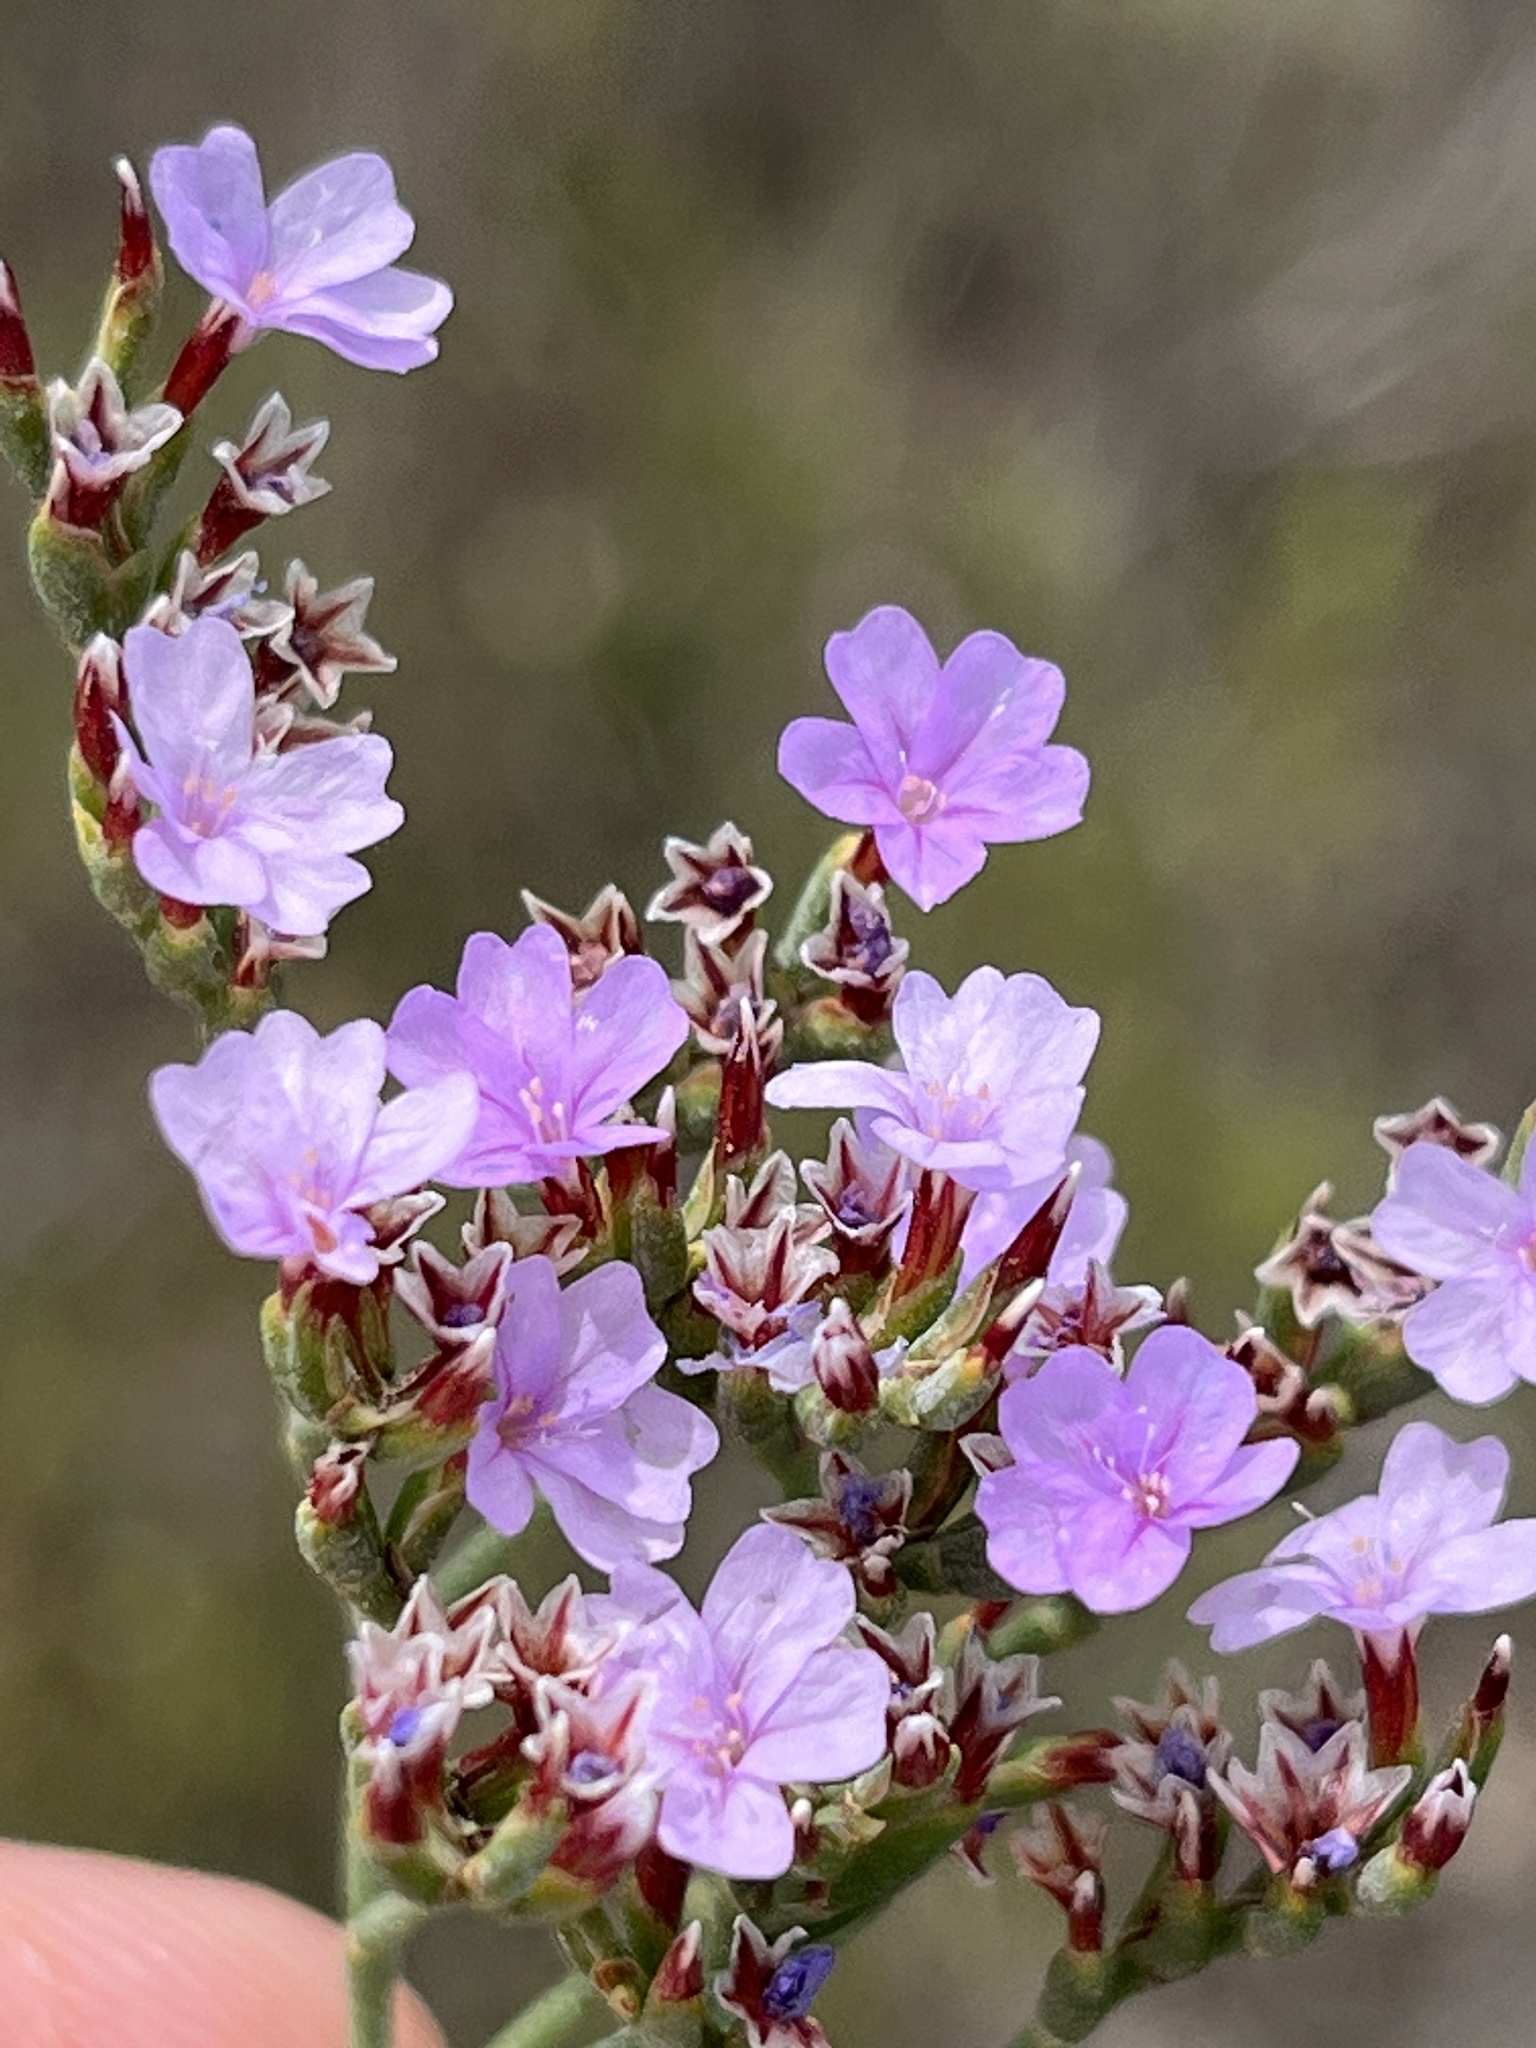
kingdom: Plantae
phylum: Tracheophyta
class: Magnoliopsida
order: Caryophyllales
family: Plumbaginaceae
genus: Limonium
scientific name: Limonium scabrum
